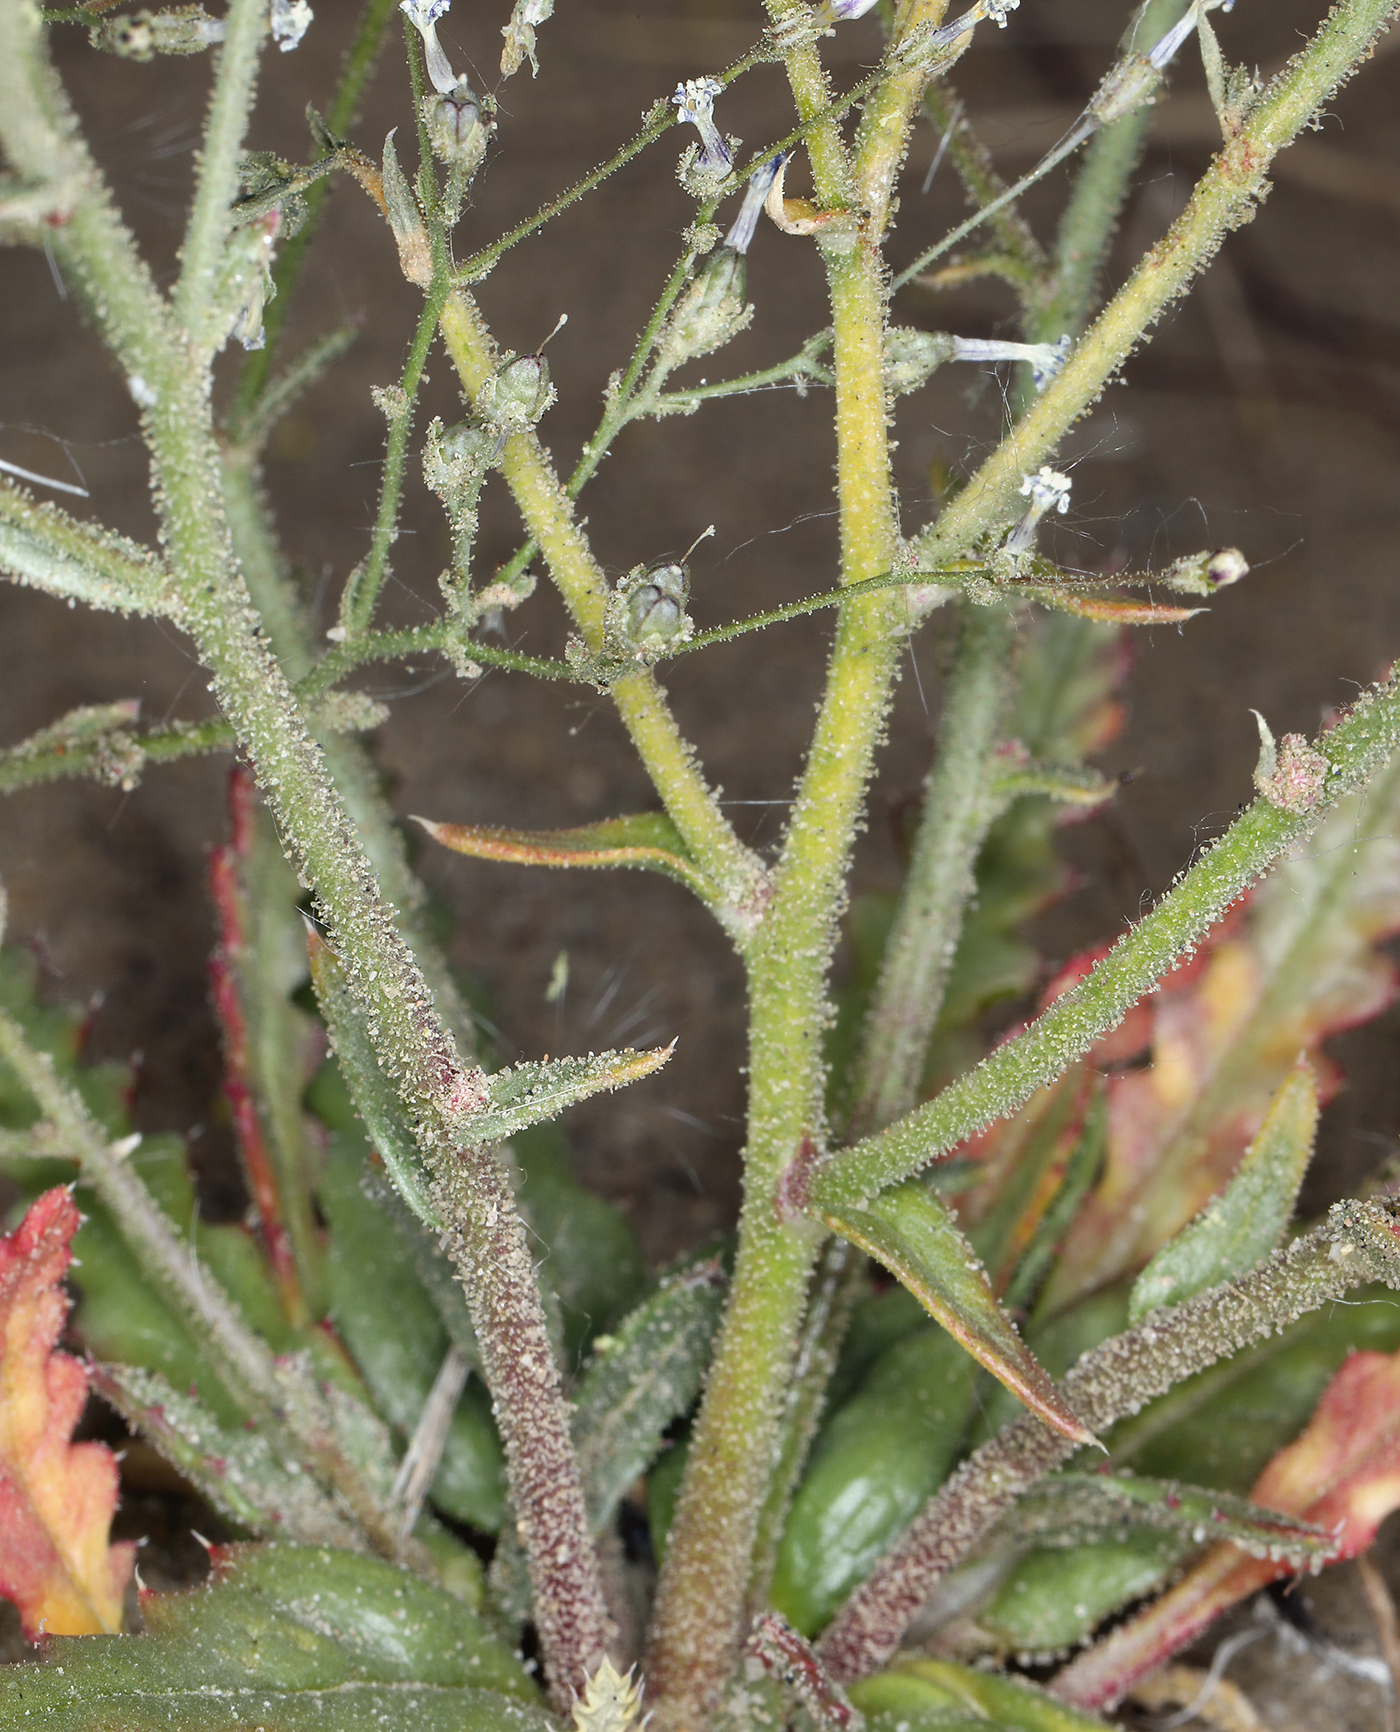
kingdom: Plantae
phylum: Tracheophyta
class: Magnoliopsida
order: Ericales
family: Polemoniaceae
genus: Aliciella
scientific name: Aliciella lottiae
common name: Lott's gilia
